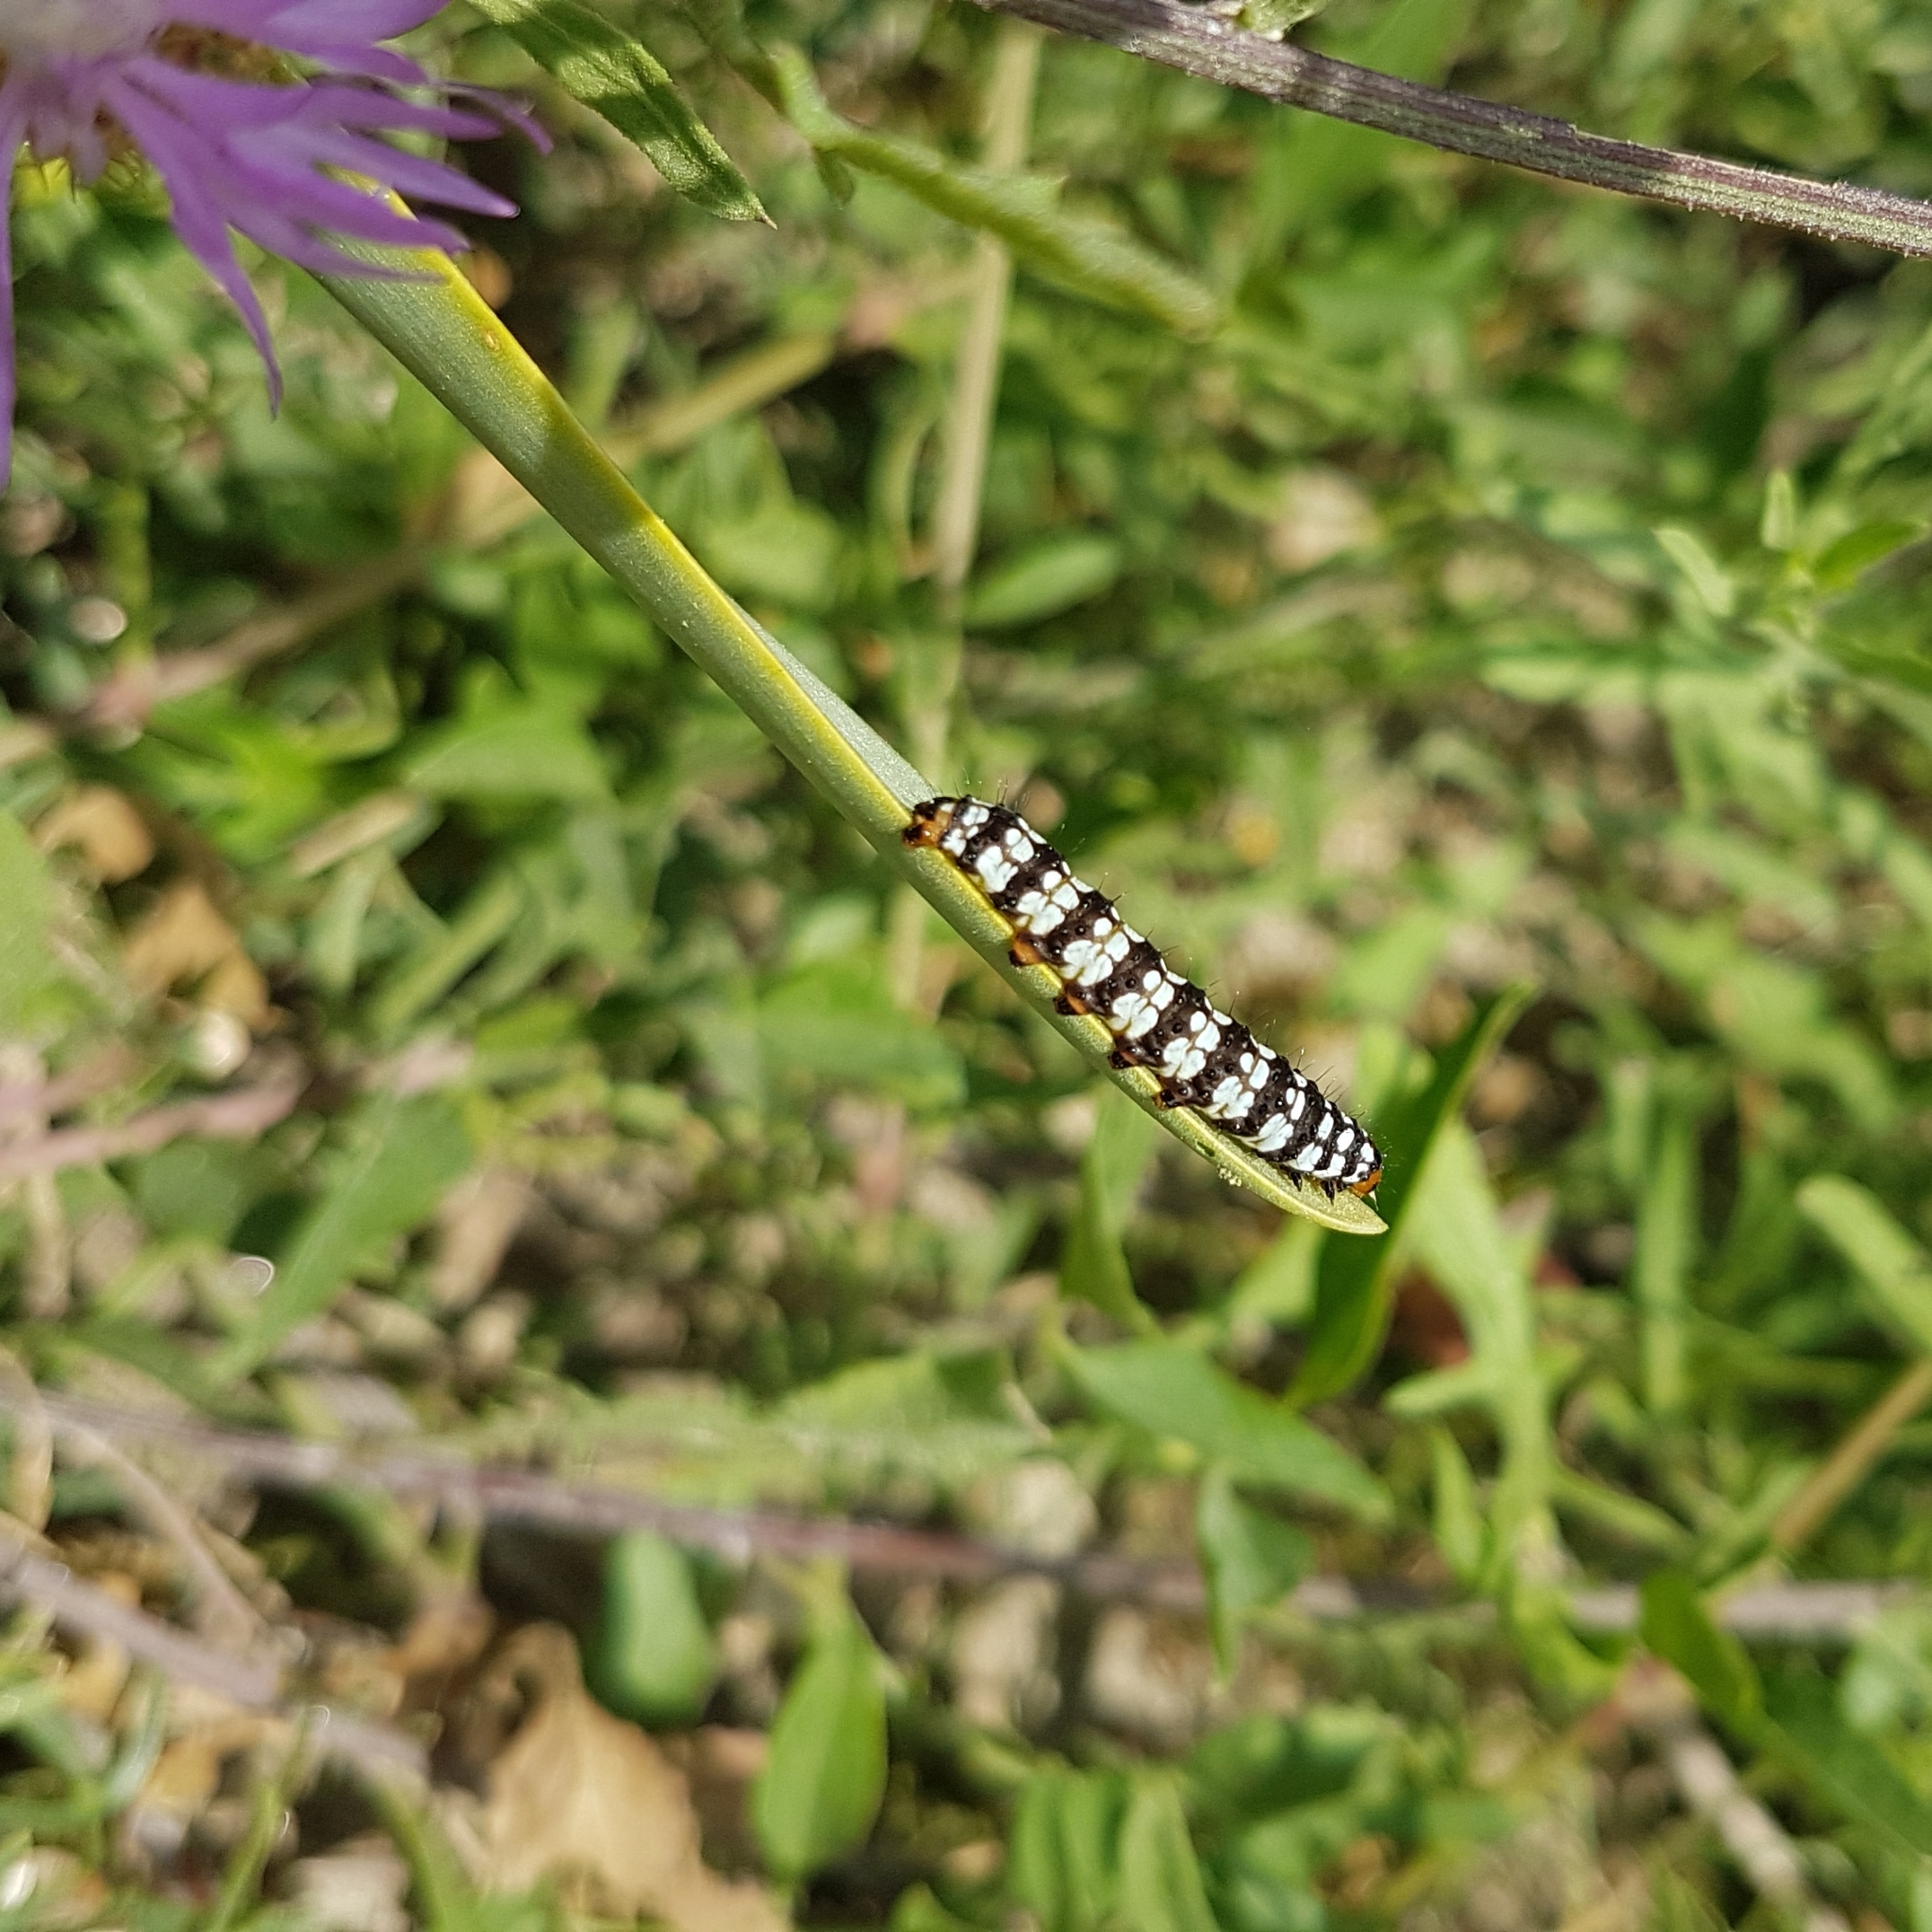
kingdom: Animalia
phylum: Arthropoda
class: Insecta
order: Lepidoptera
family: Noctuidae
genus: Brithys
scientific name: Brithys crini
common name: Kew arches
